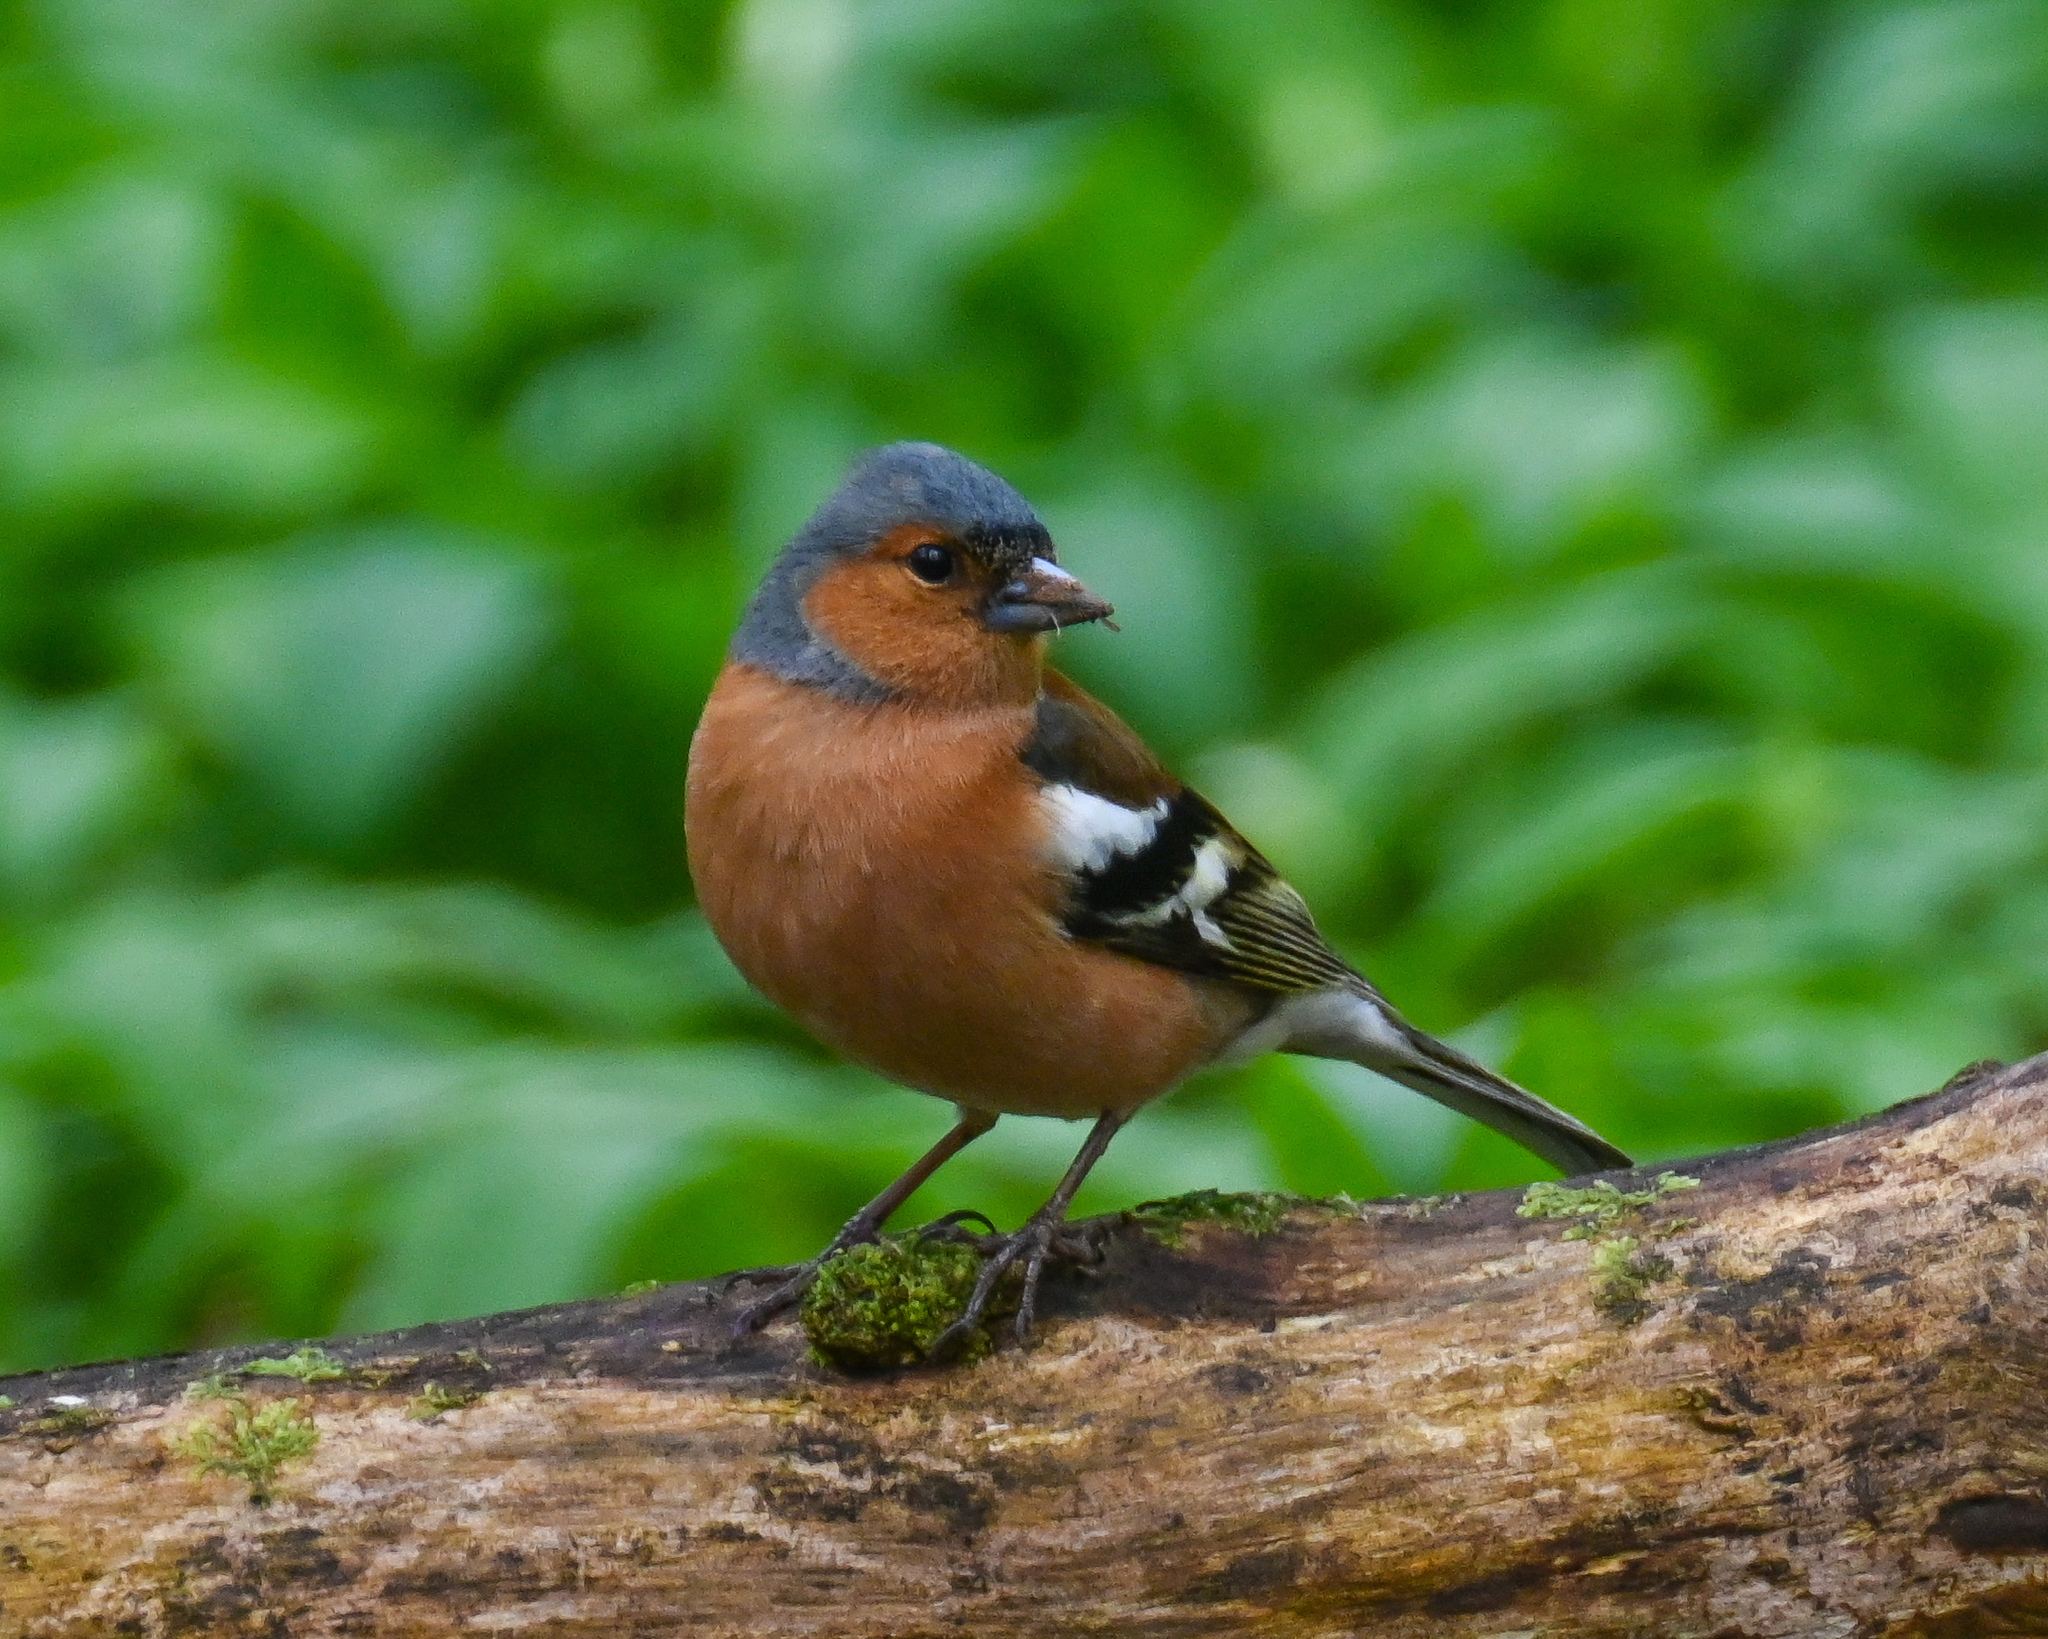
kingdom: Animalia
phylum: Chordata
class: Aves
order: Passeriformes
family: Fringillidae
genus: Fringilla
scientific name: Fringilla coelebs
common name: Common chaffinch
